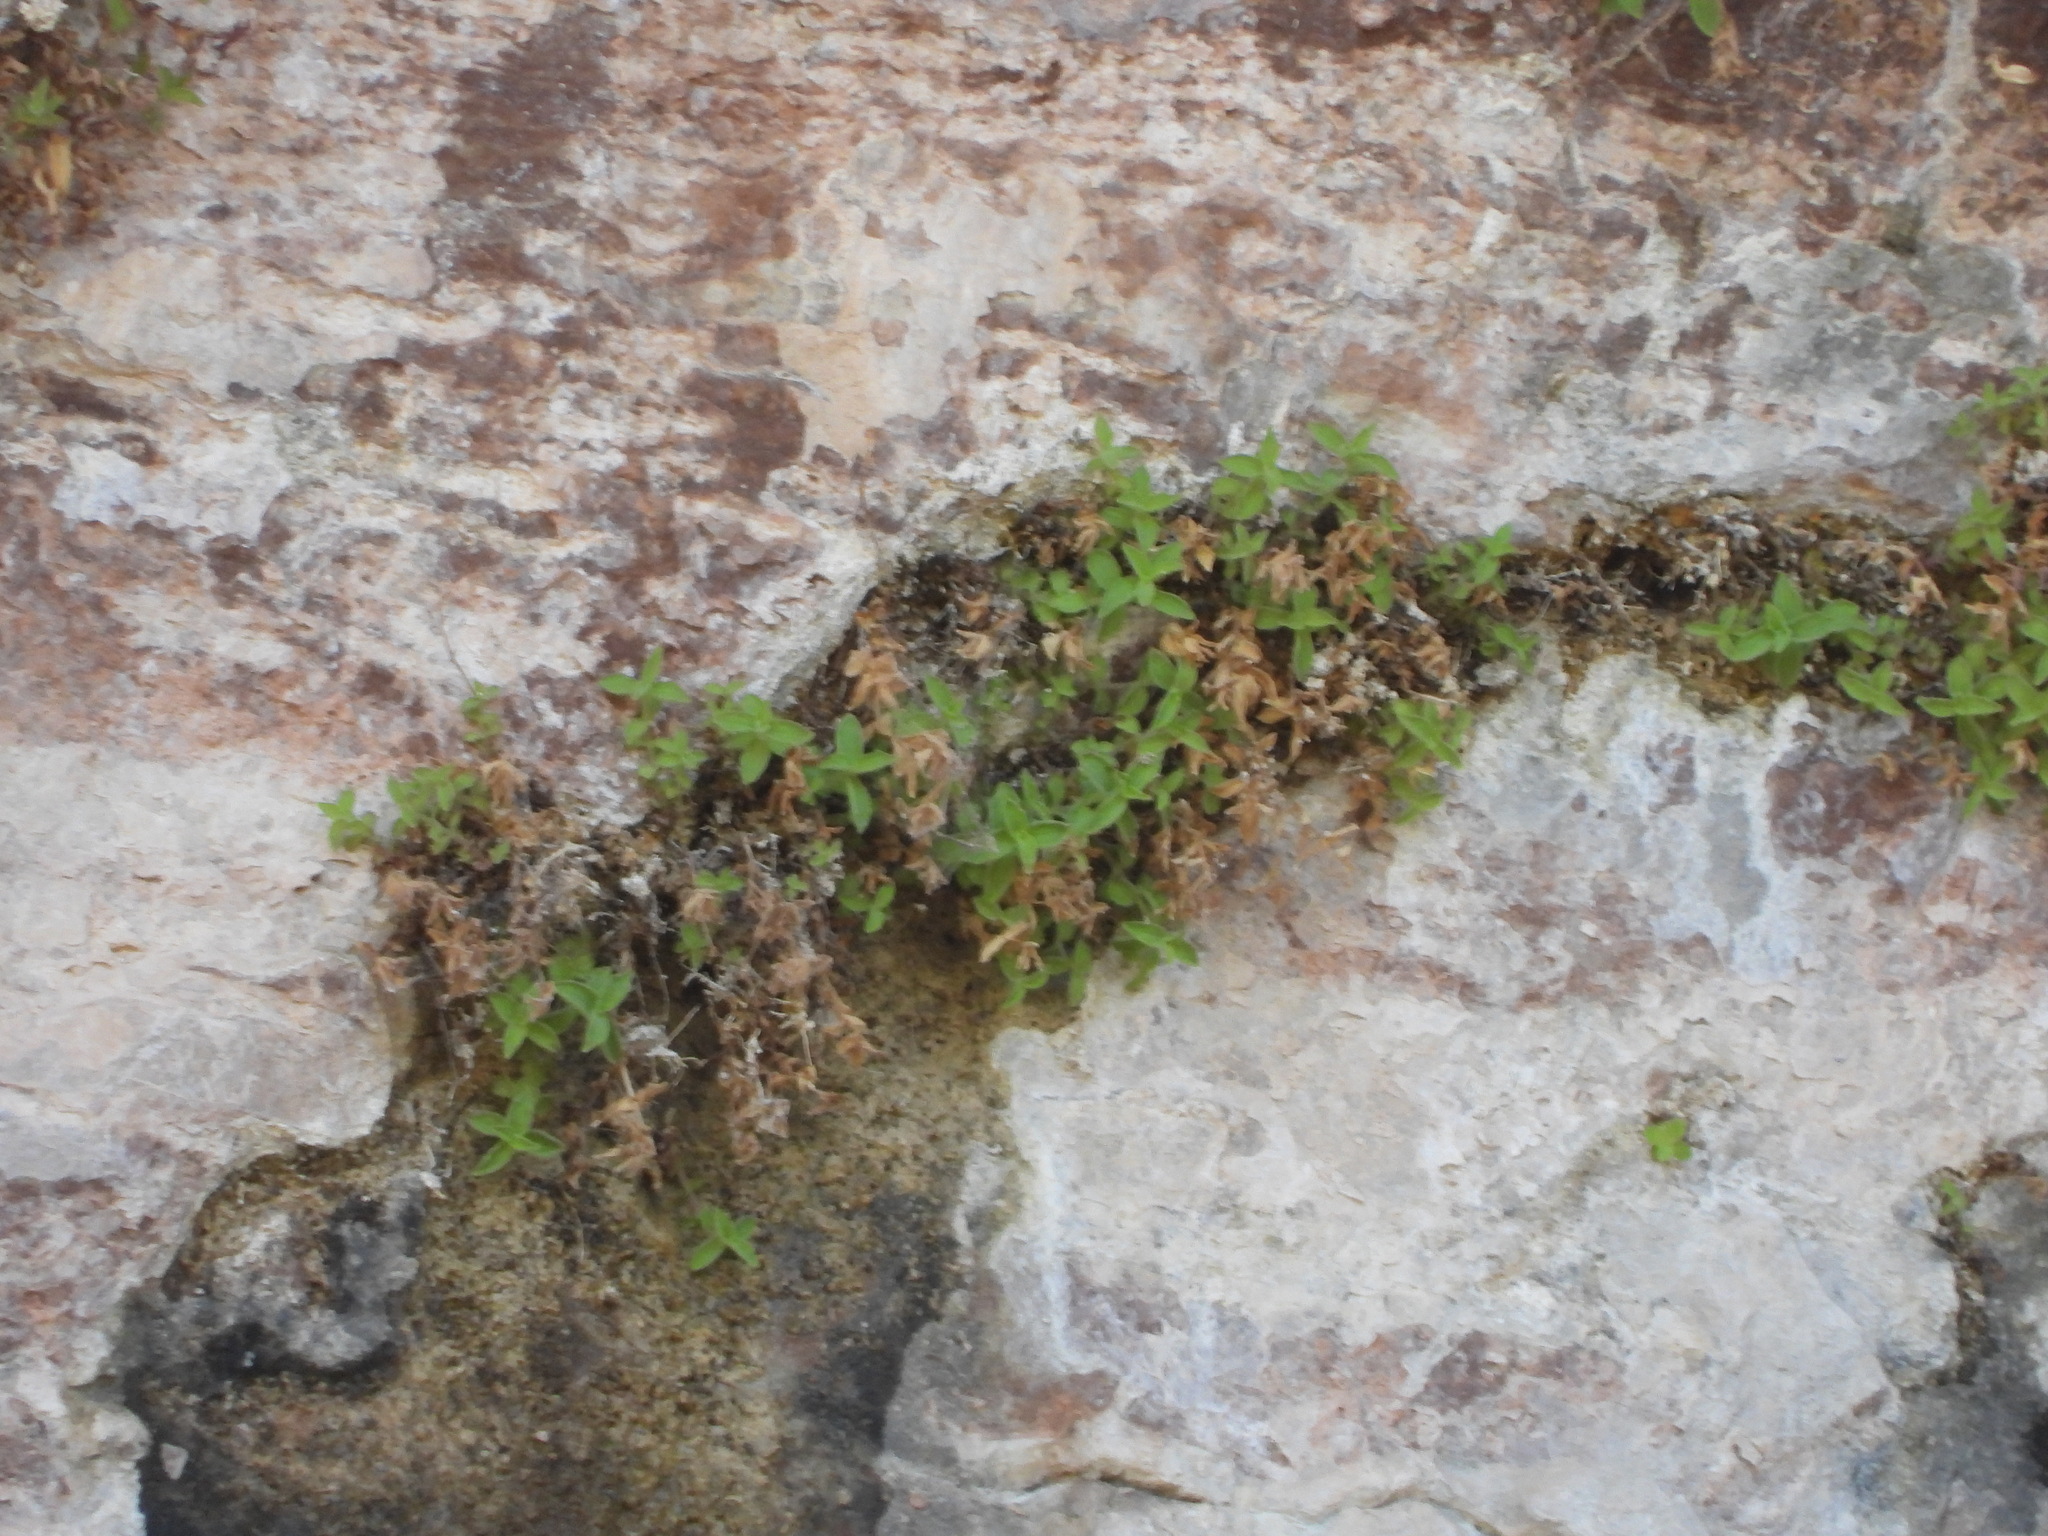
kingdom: Plantae
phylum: Tracheophyta
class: Magnoliopsida
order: Lamiales
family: Phrymaceae
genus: Erythranthe
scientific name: Erythranthe eastwoodiae
